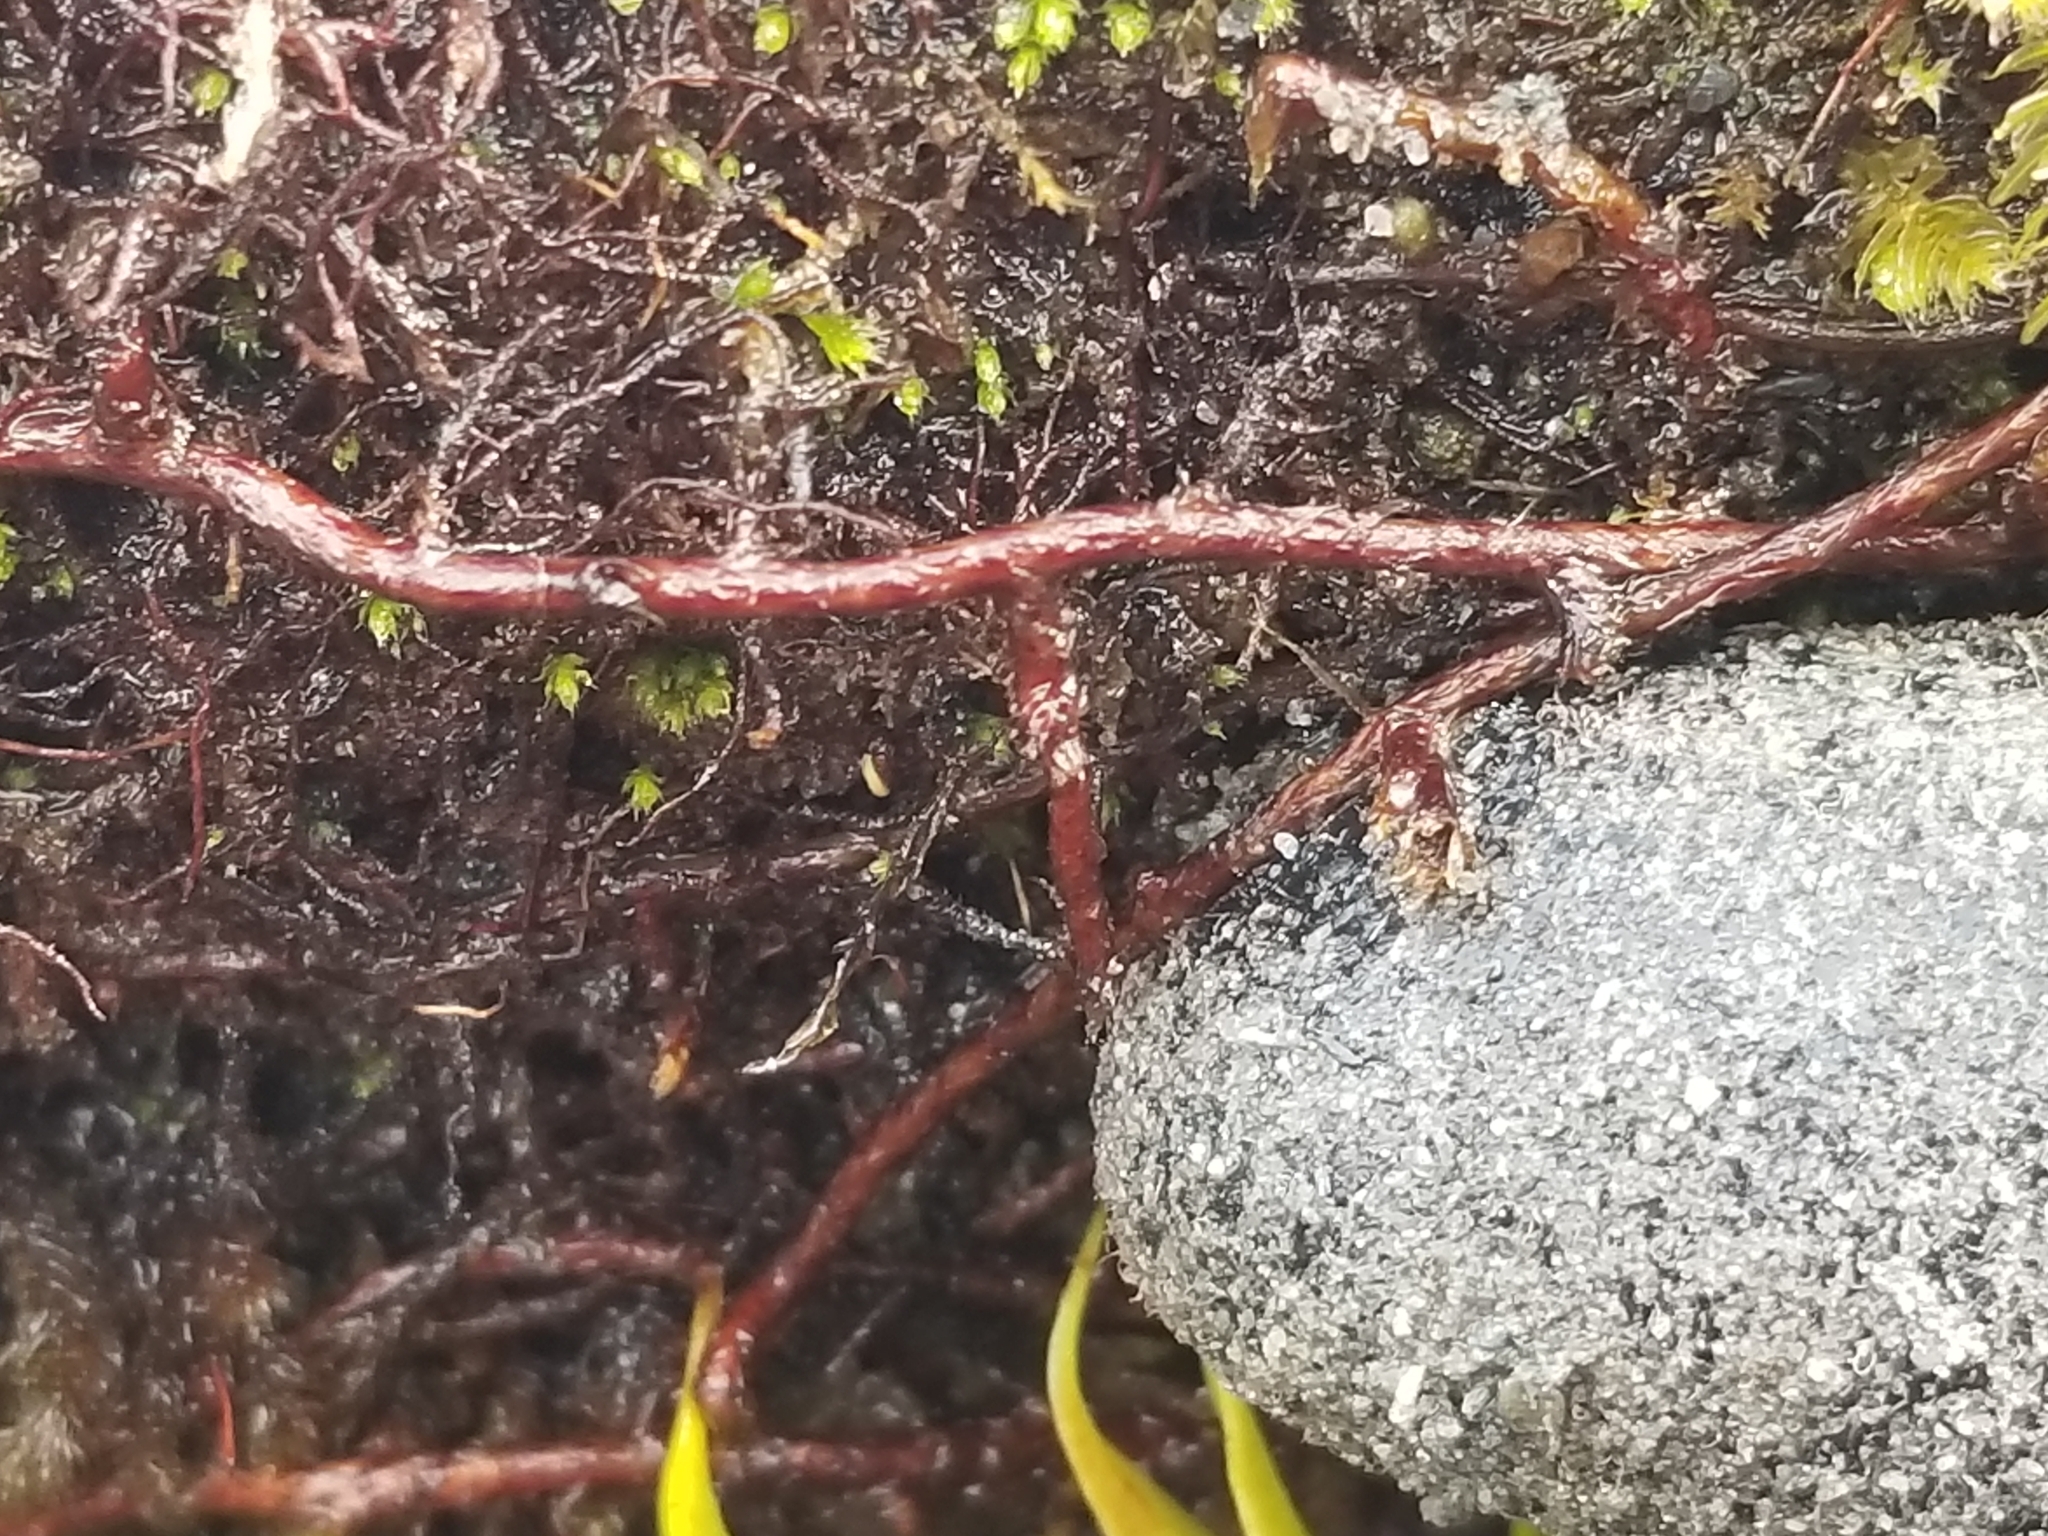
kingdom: Plantae
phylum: Tracheophyta
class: Polypodiopsida
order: Polypodiales
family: Polypodiaceae
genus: Pyrrosia
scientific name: Pyrrosia eleagnifolia
